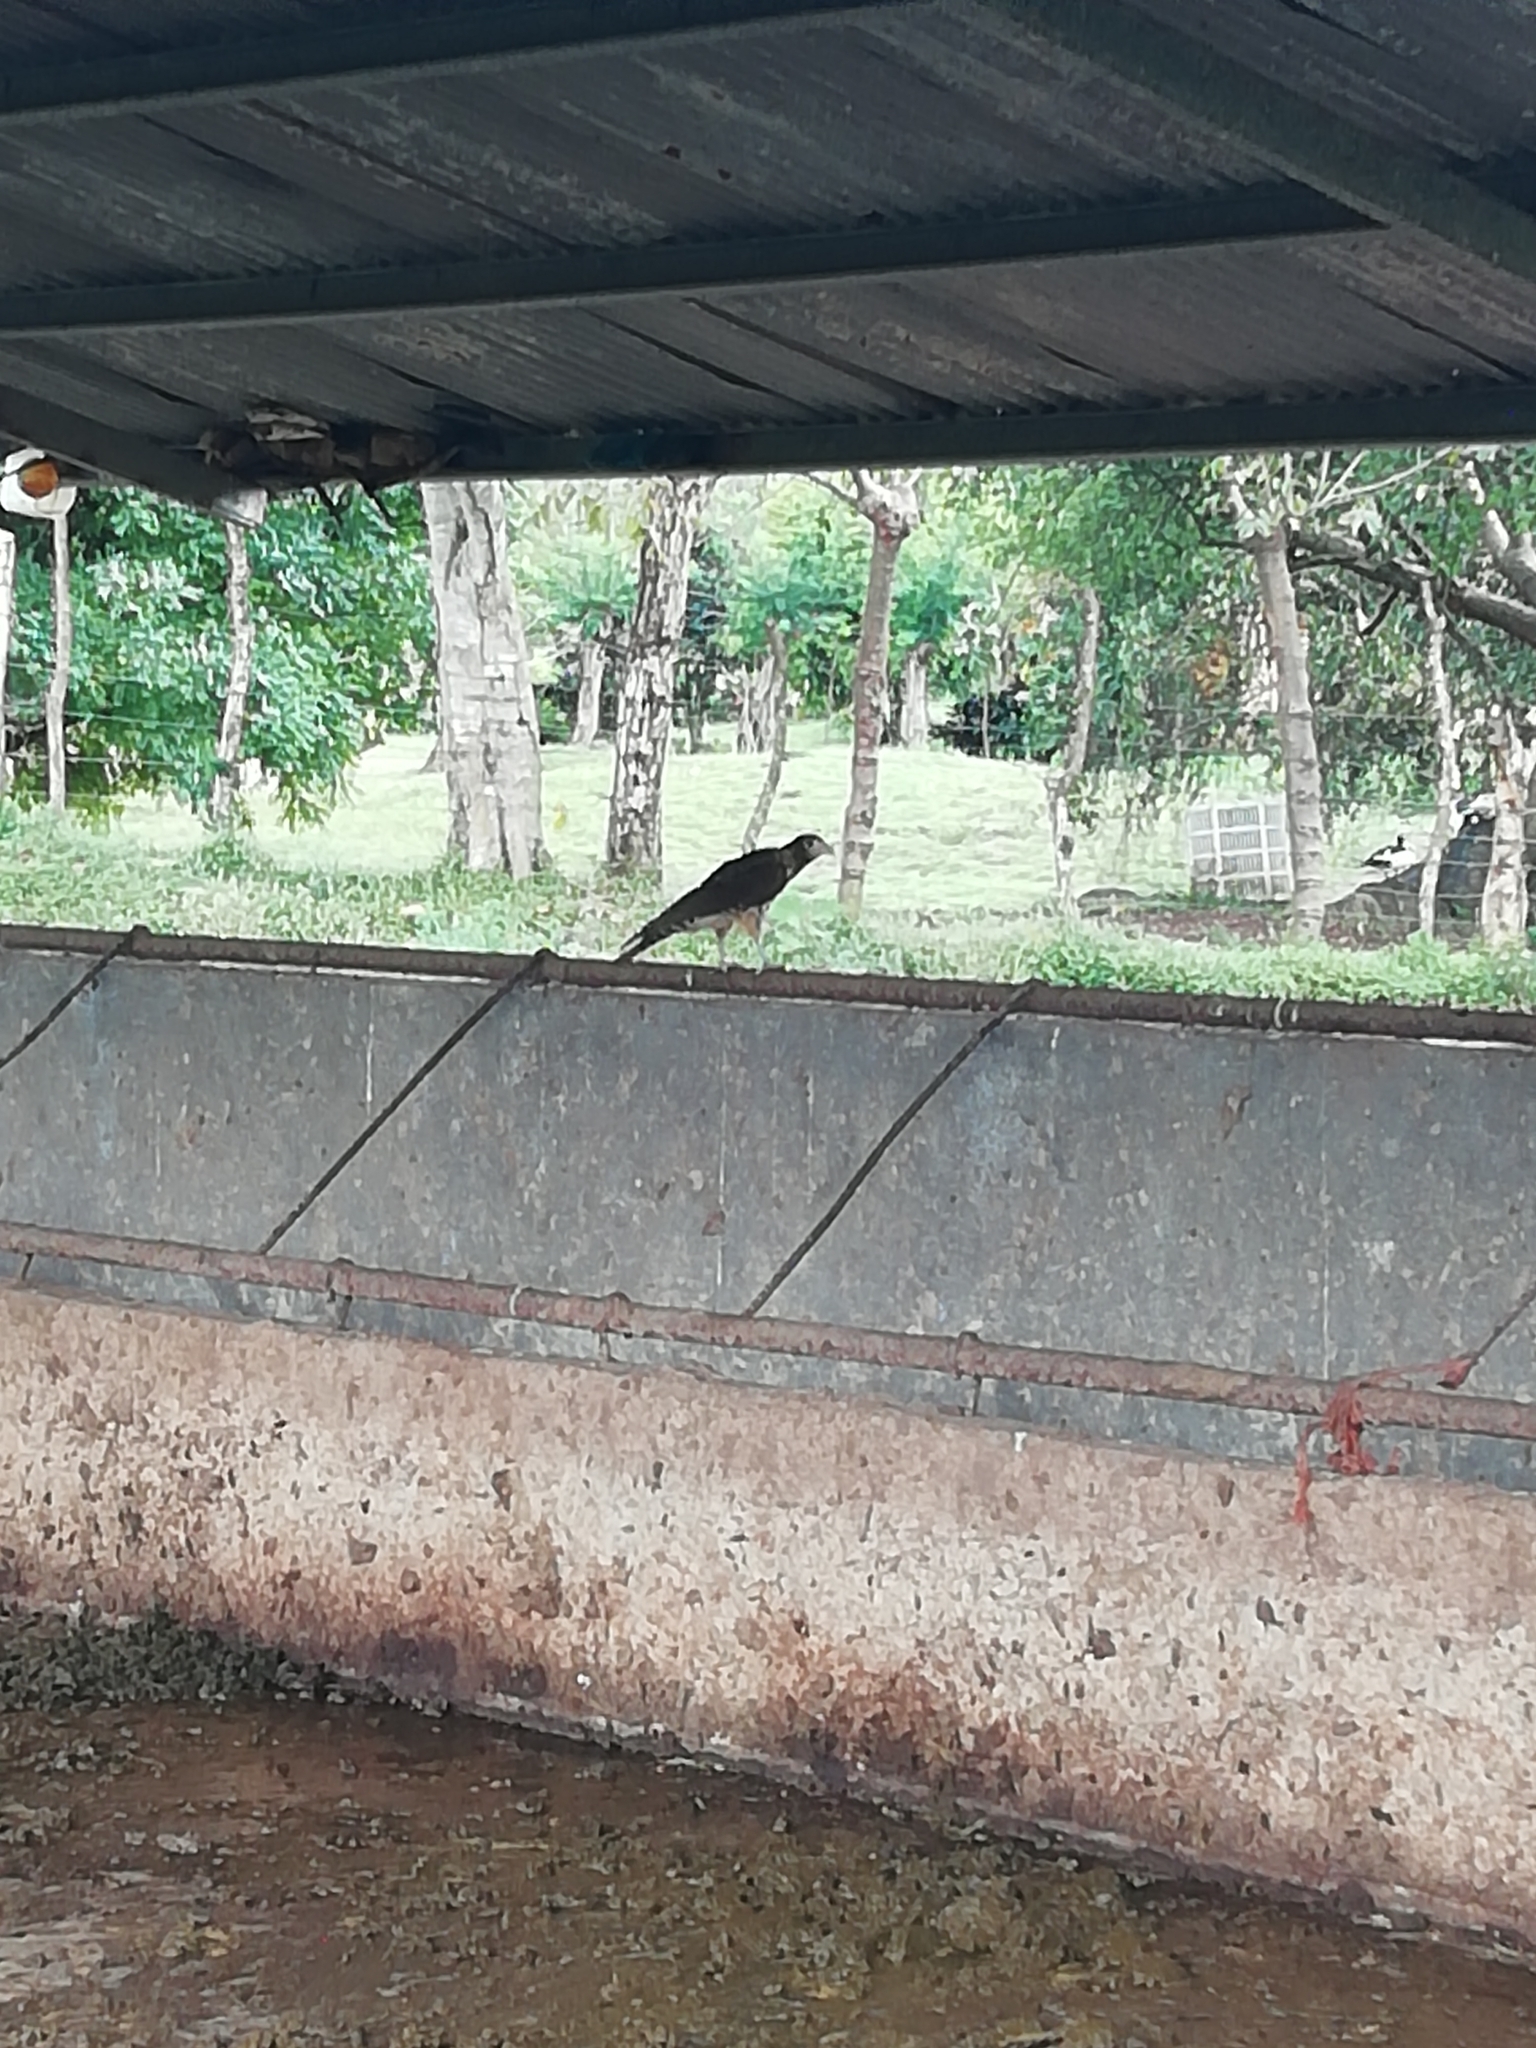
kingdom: Animalia
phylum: Chordata
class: Aves
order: Falconiformes
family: Falconidae
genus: Daptrius
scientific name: Daptrius
